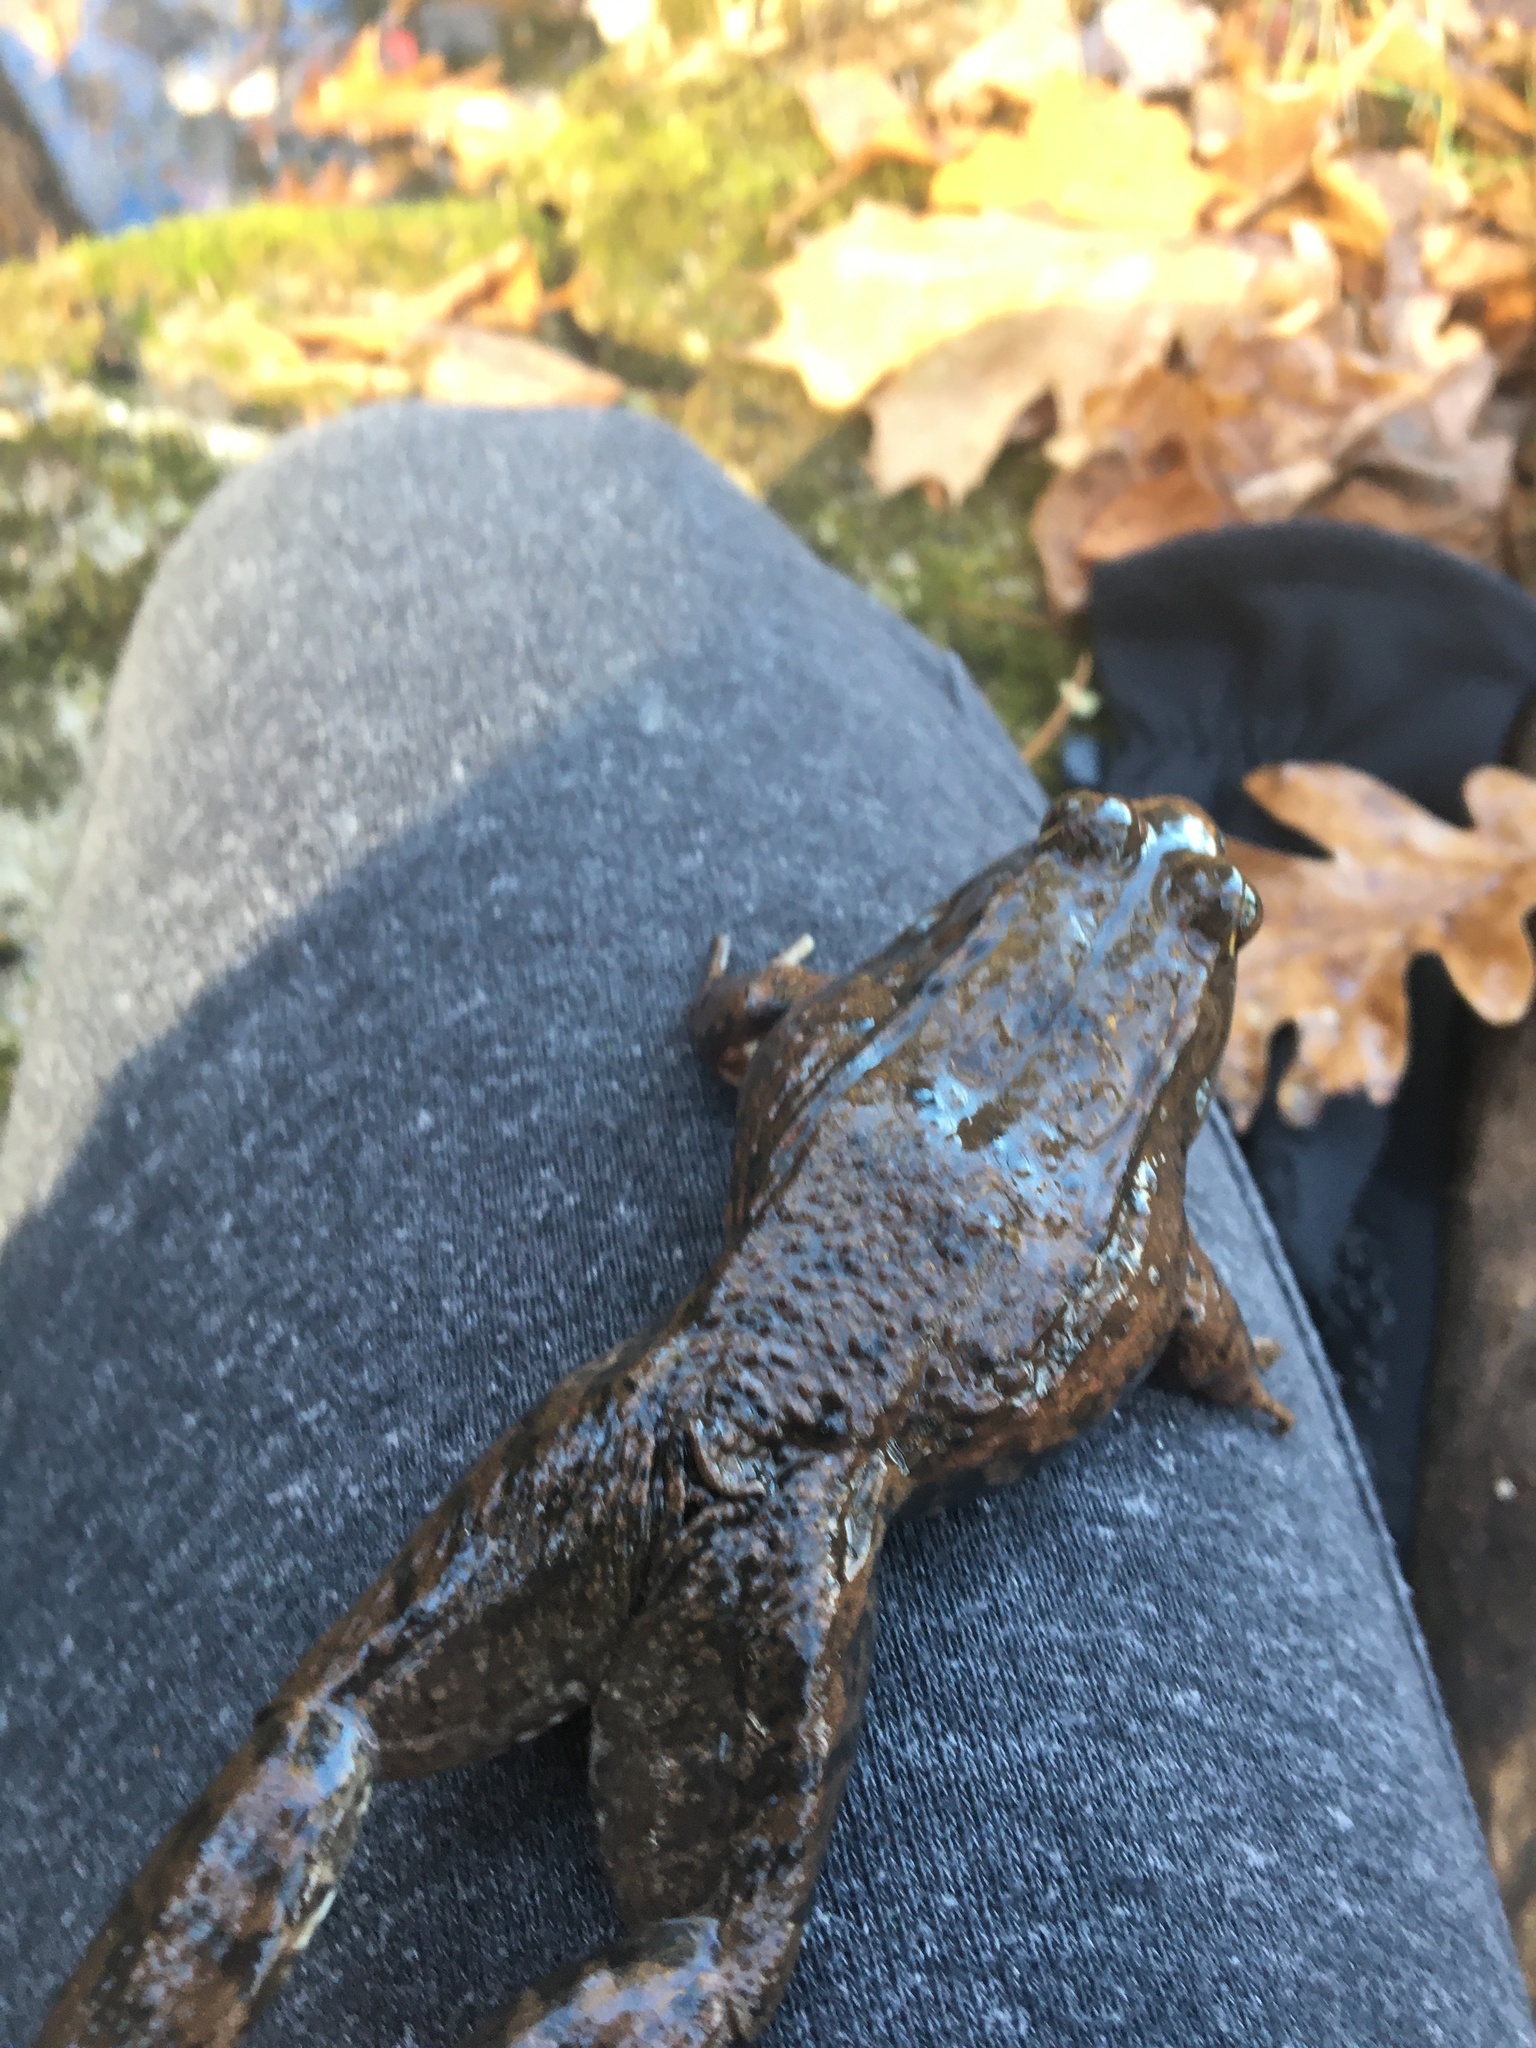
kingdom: Animalia
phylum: Chordata
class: Amphibia
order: Anura
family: Ranidae
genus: Lithobates
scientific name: Lithobates clamitans
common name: Green frog
